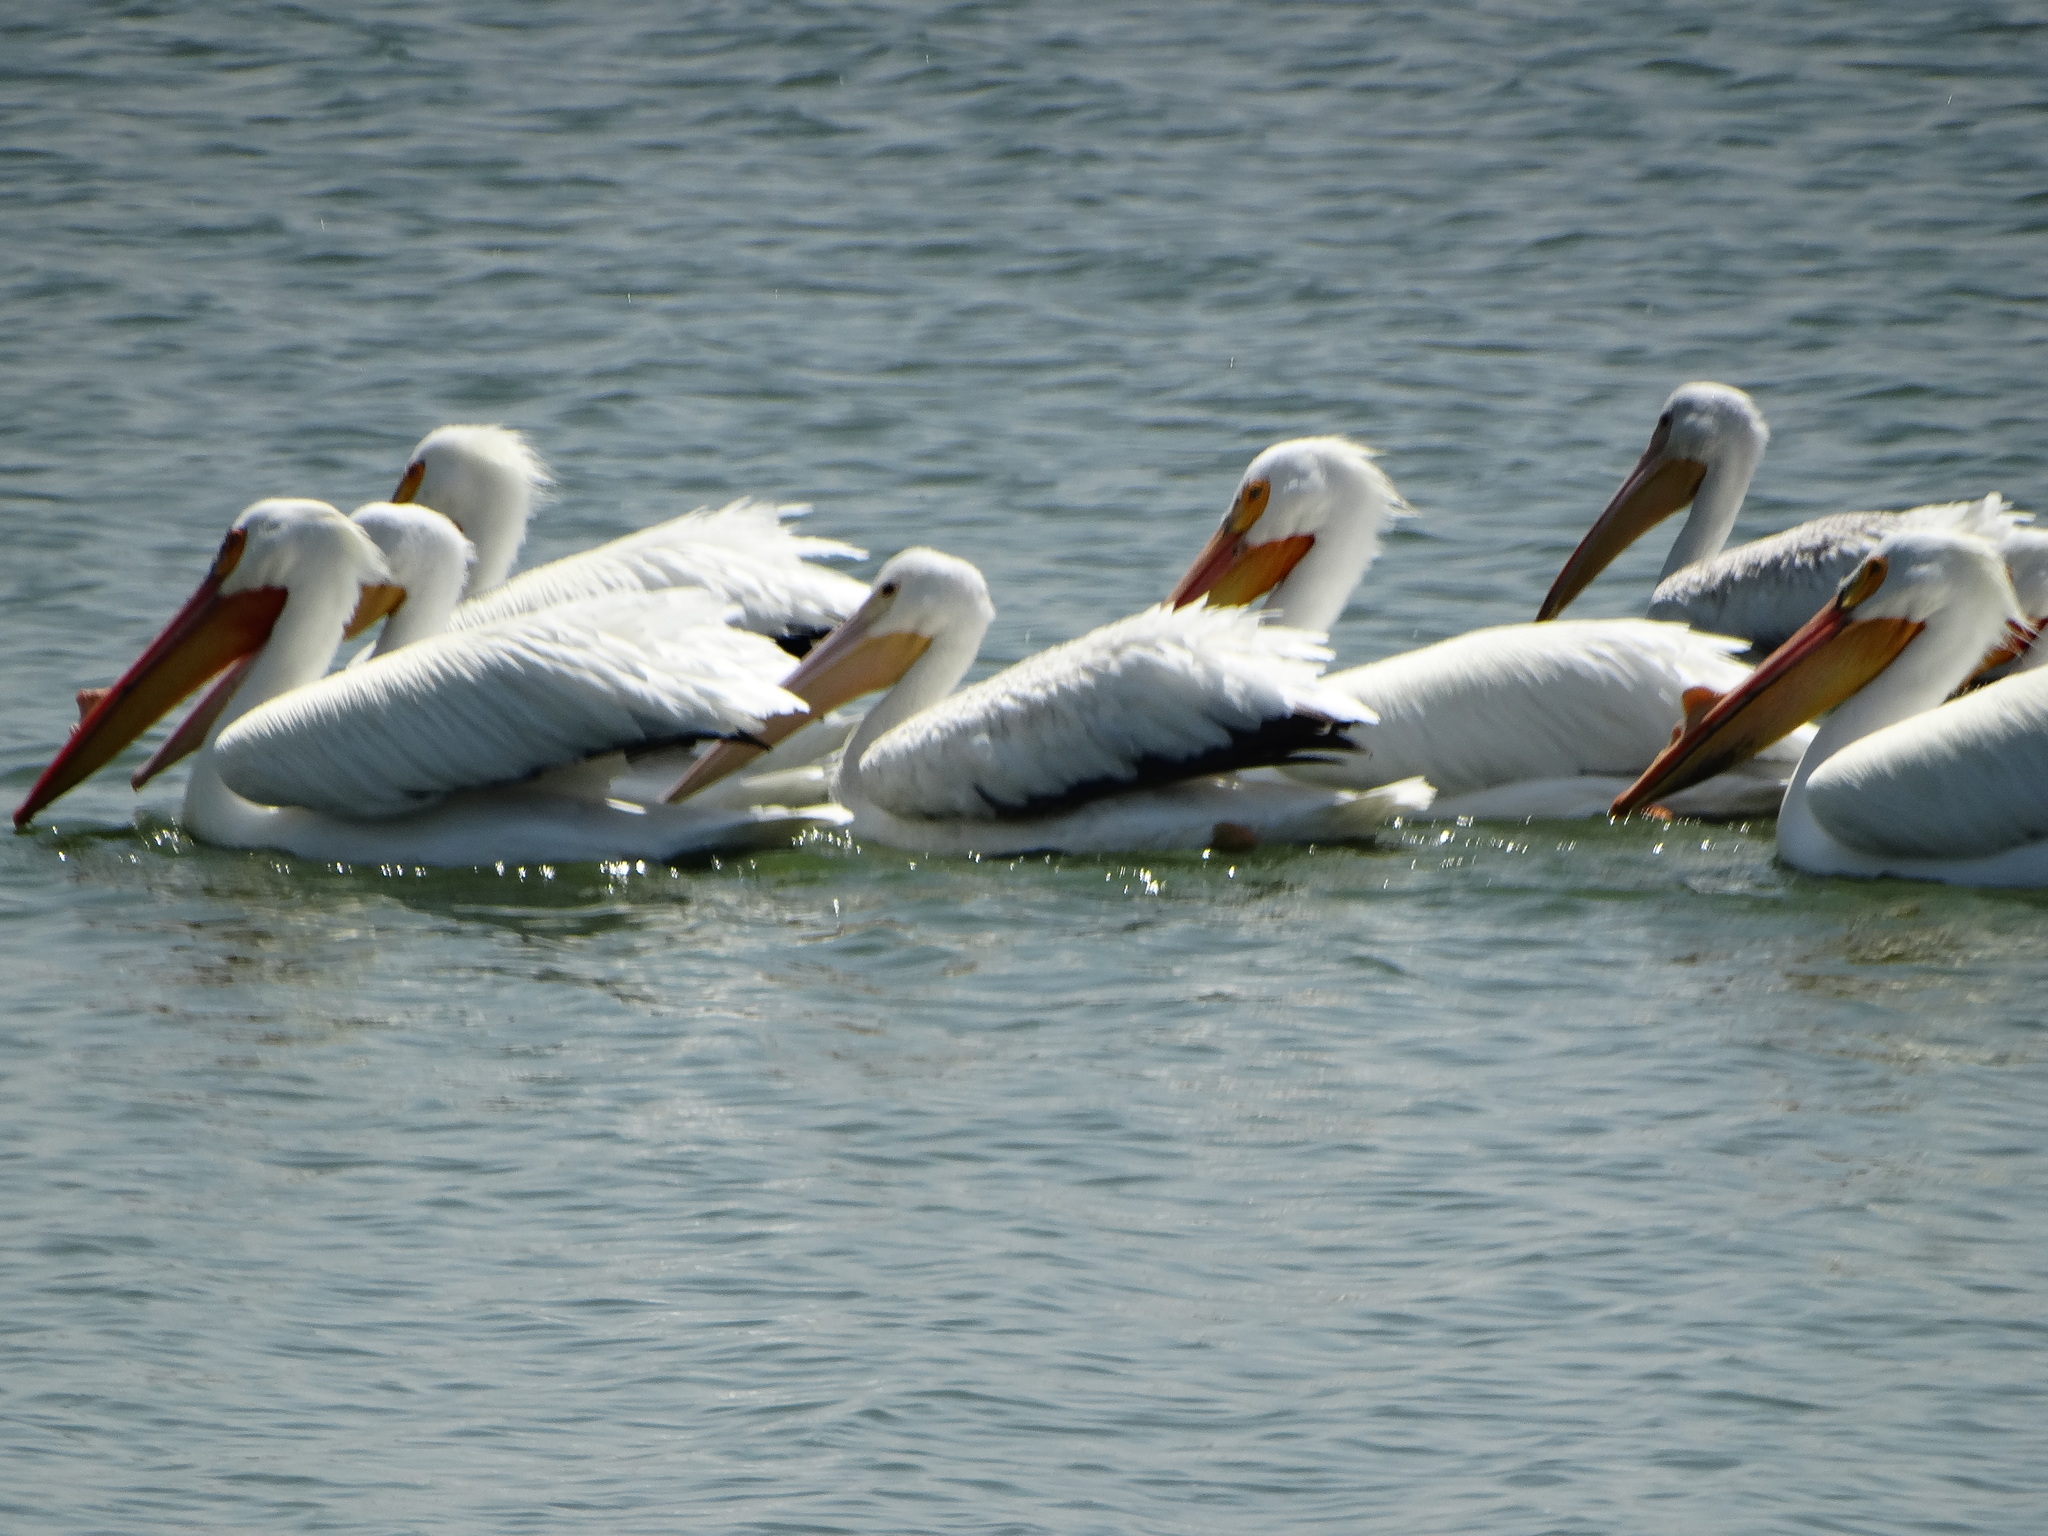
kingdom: Animalia
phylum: Chordata
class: Aves
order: Pelecaniformes
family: Pelecanidae
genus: Pelecanus
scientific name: Pelecanus erythrorhynchos
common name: American white pelican
